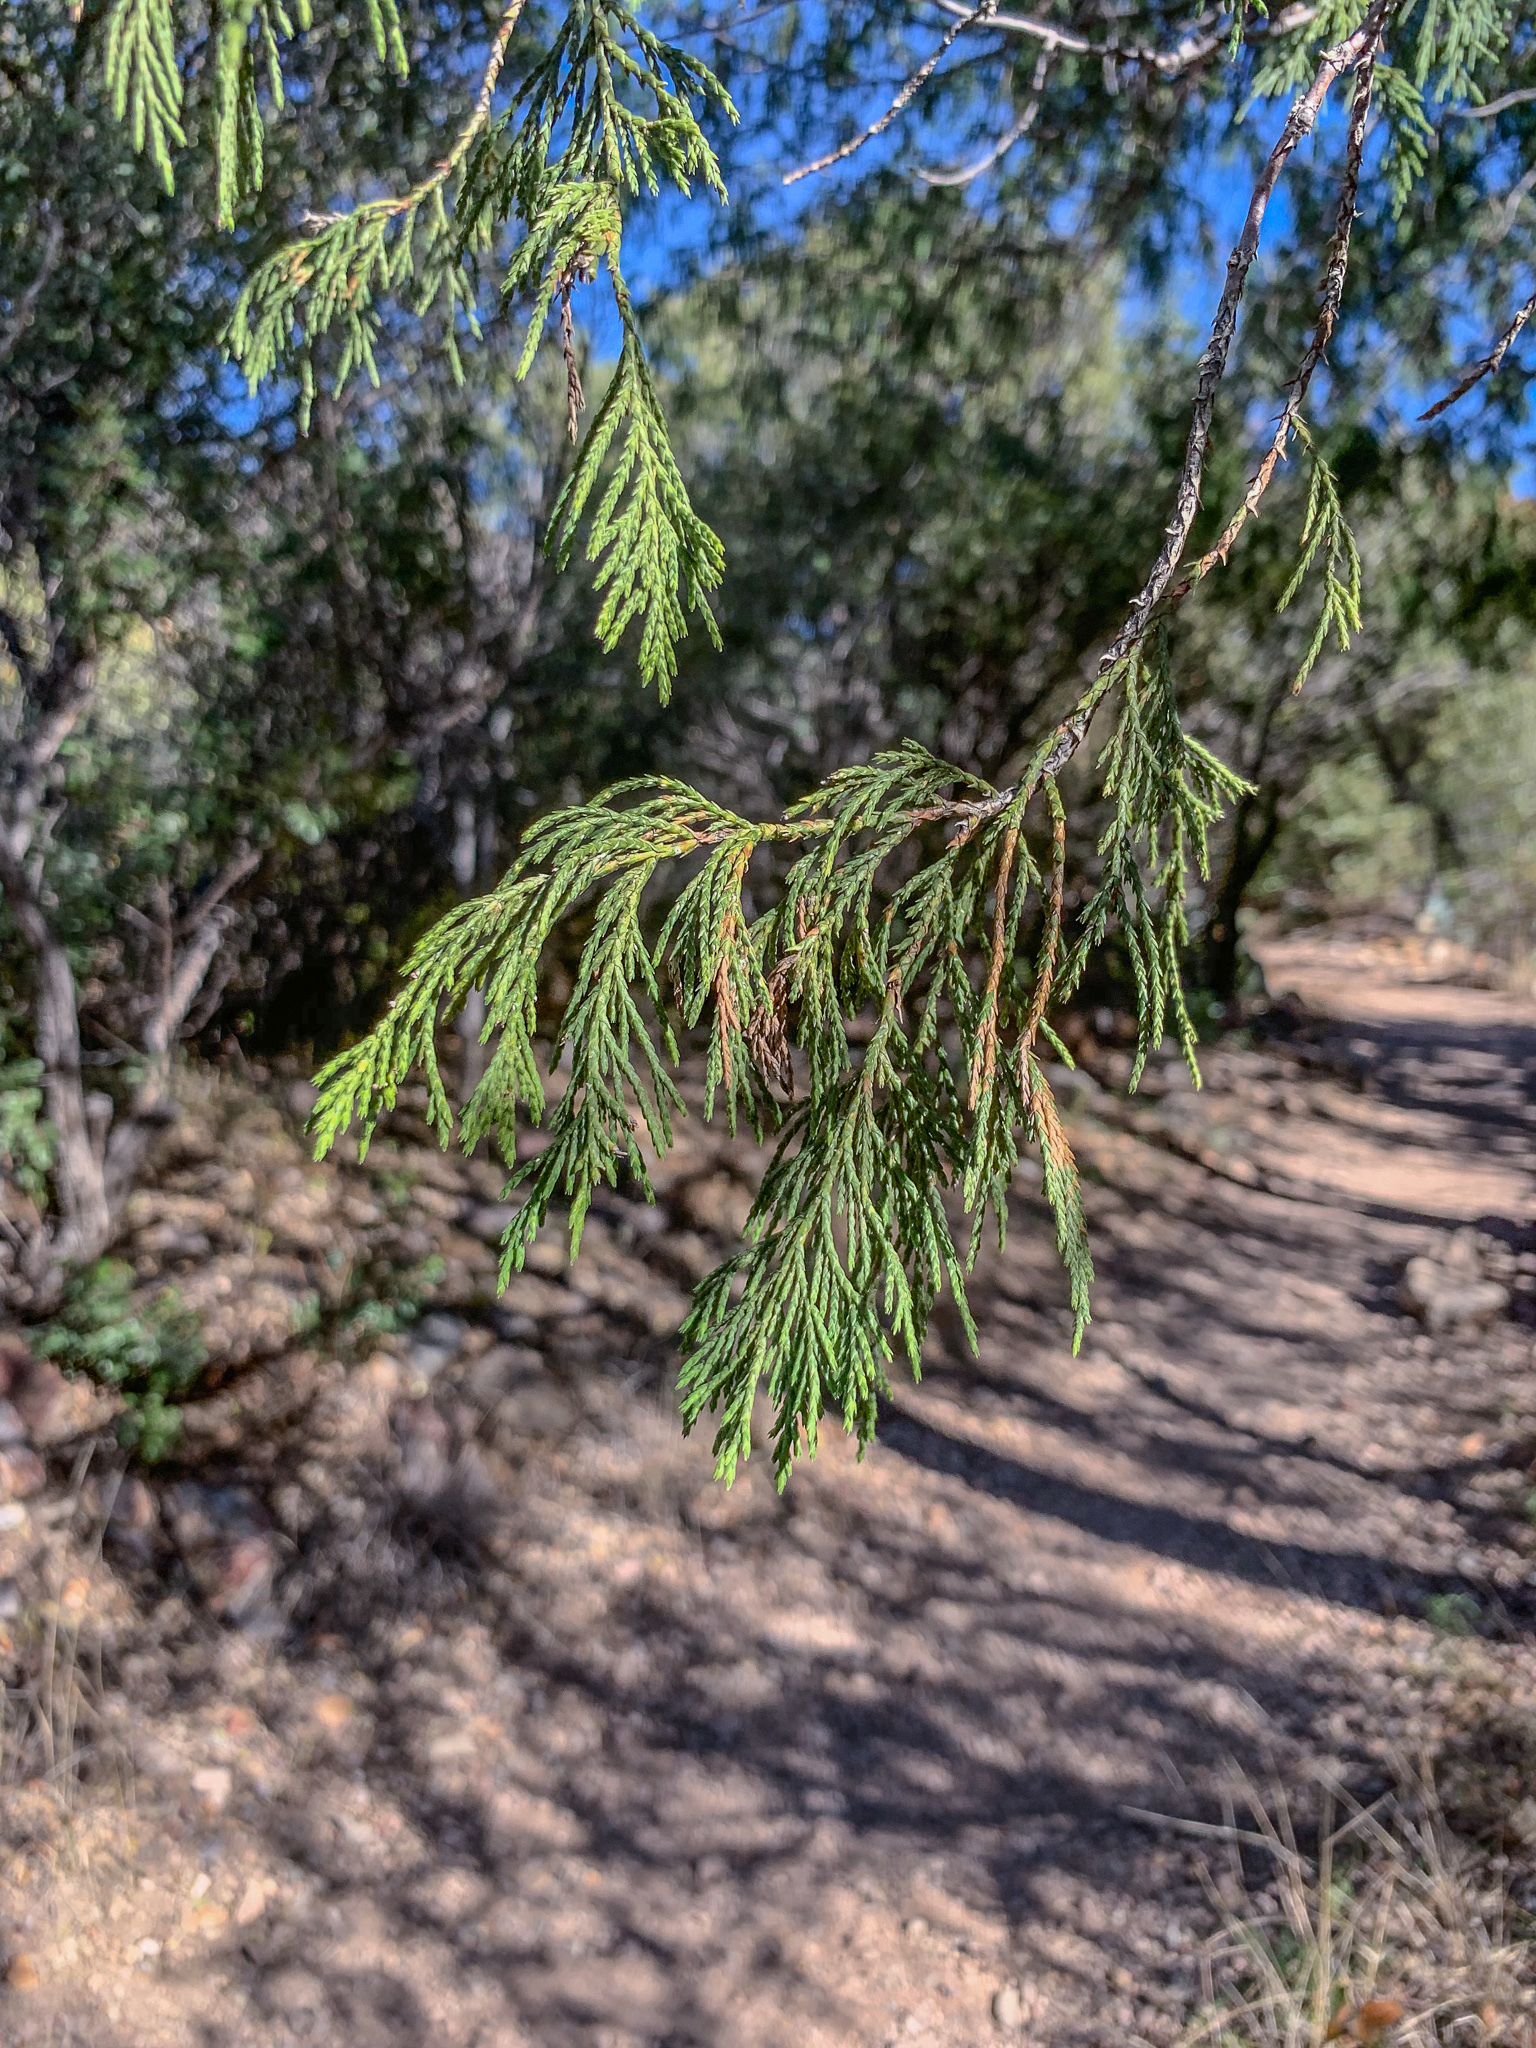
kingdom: Plantae
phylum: Tracheophyta
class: Pinopsida
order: Pinales
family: Cupressaceae
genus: Juniperus
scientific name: Juniperus flaccida
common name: Drooping juniper
